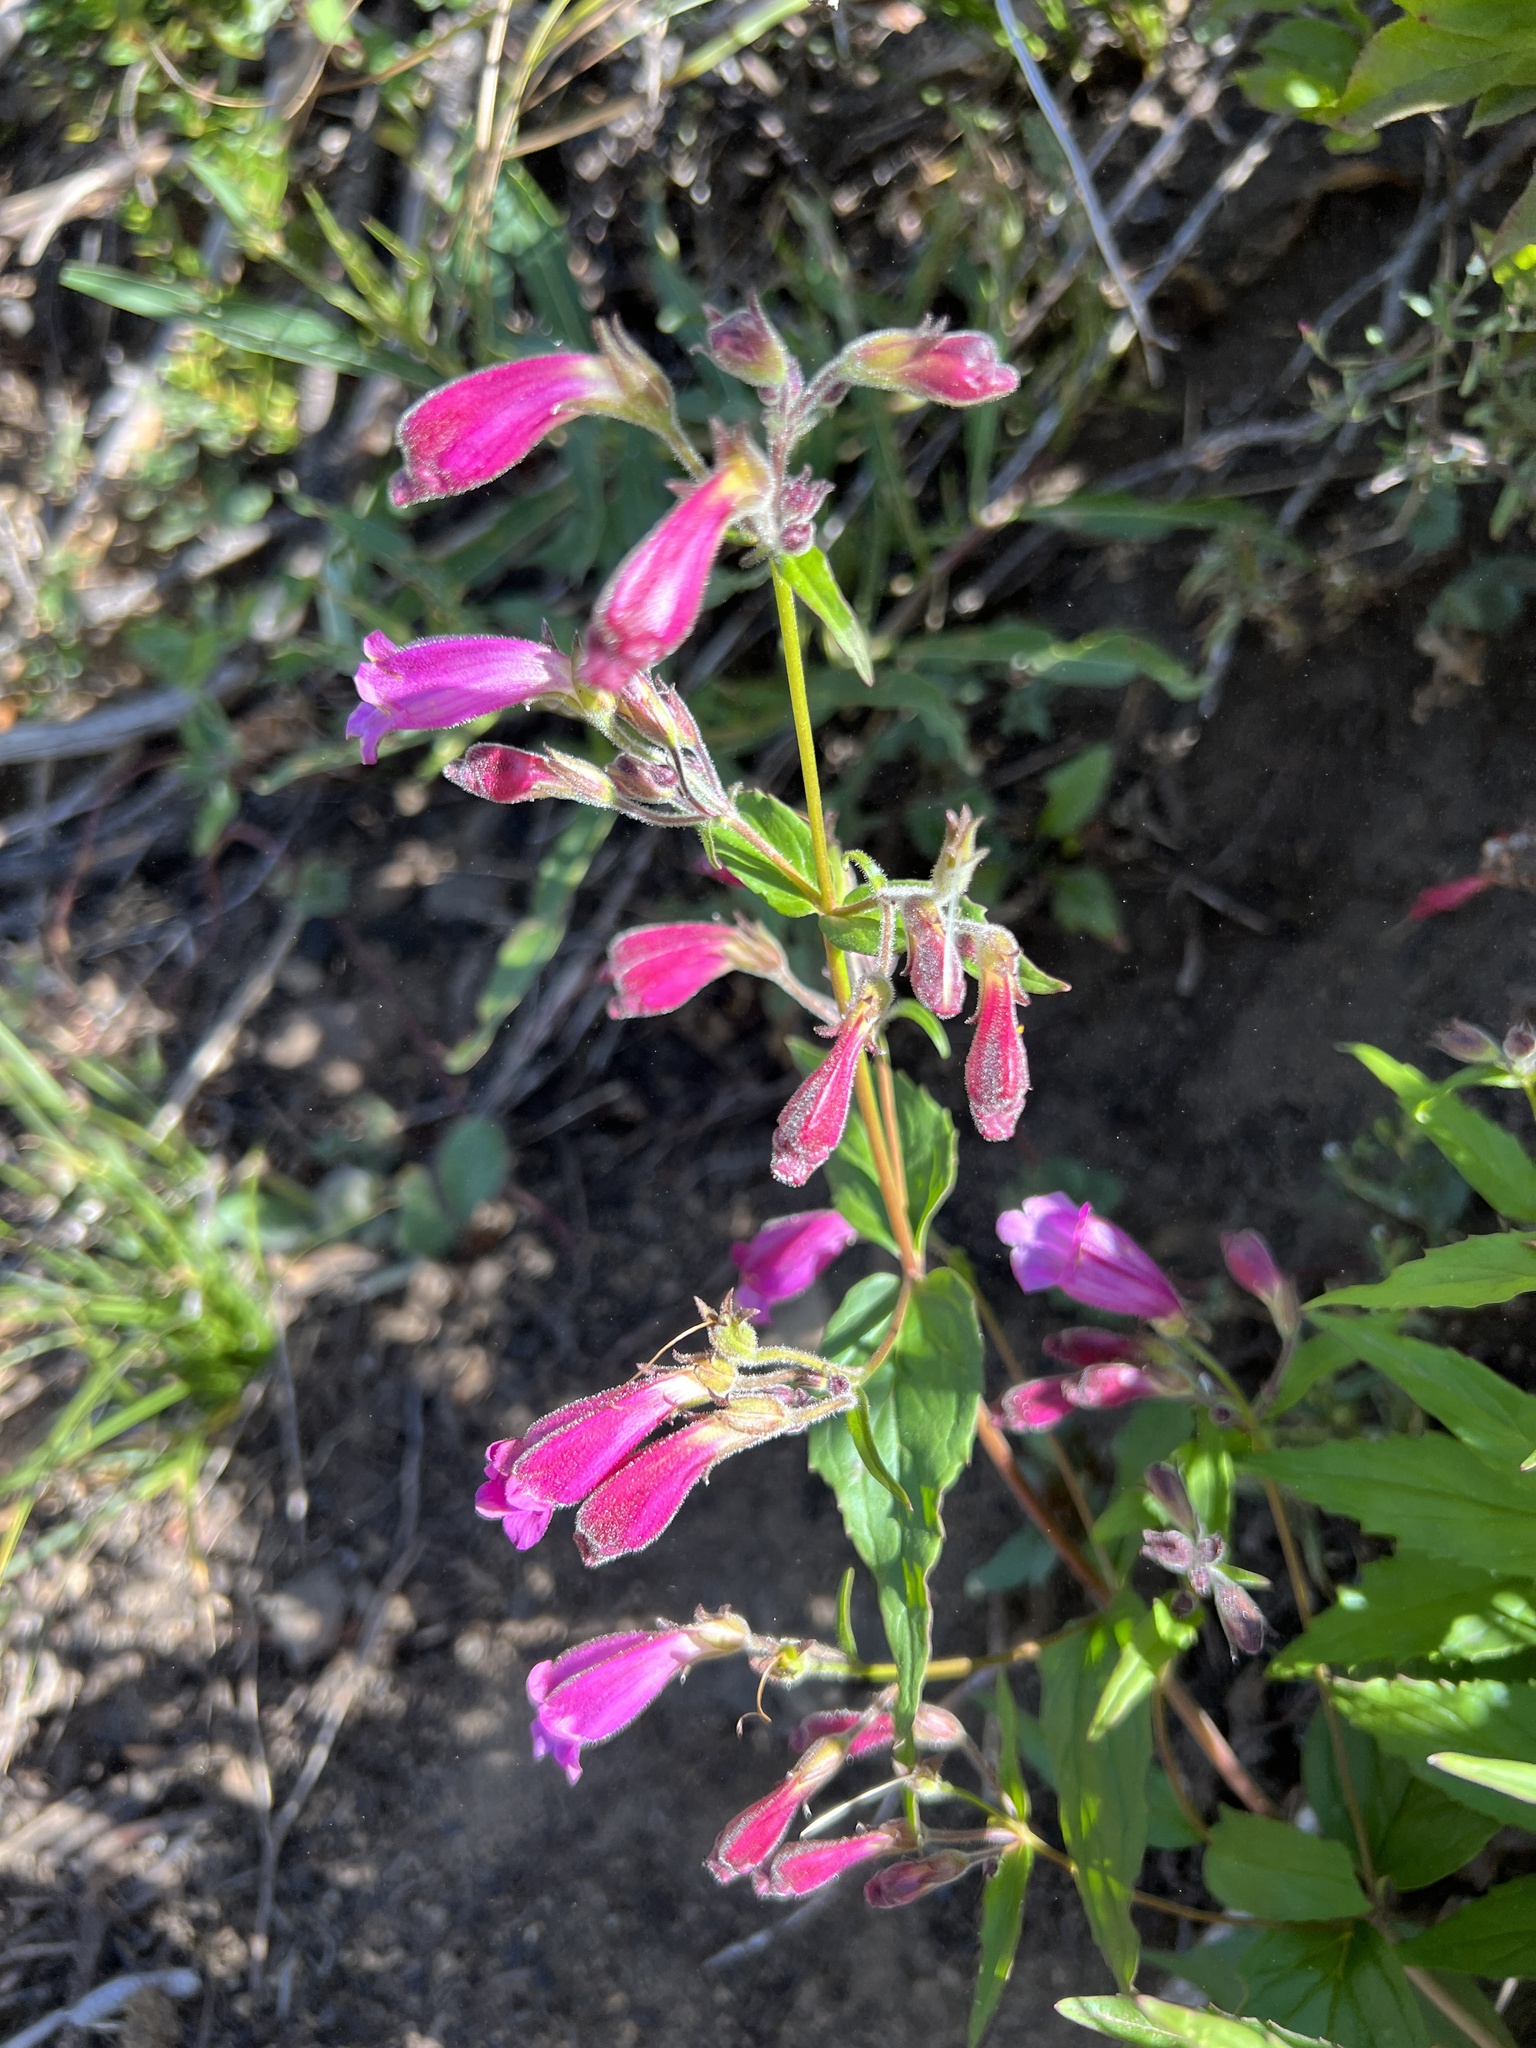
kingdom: Plantae
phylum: Tracheophyta
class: Magnoliopsida
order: Lamiales
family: Plantaginaceae
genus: Nothochelone
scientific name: Nothochelone nemorosa
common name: Woodland beardtongue
